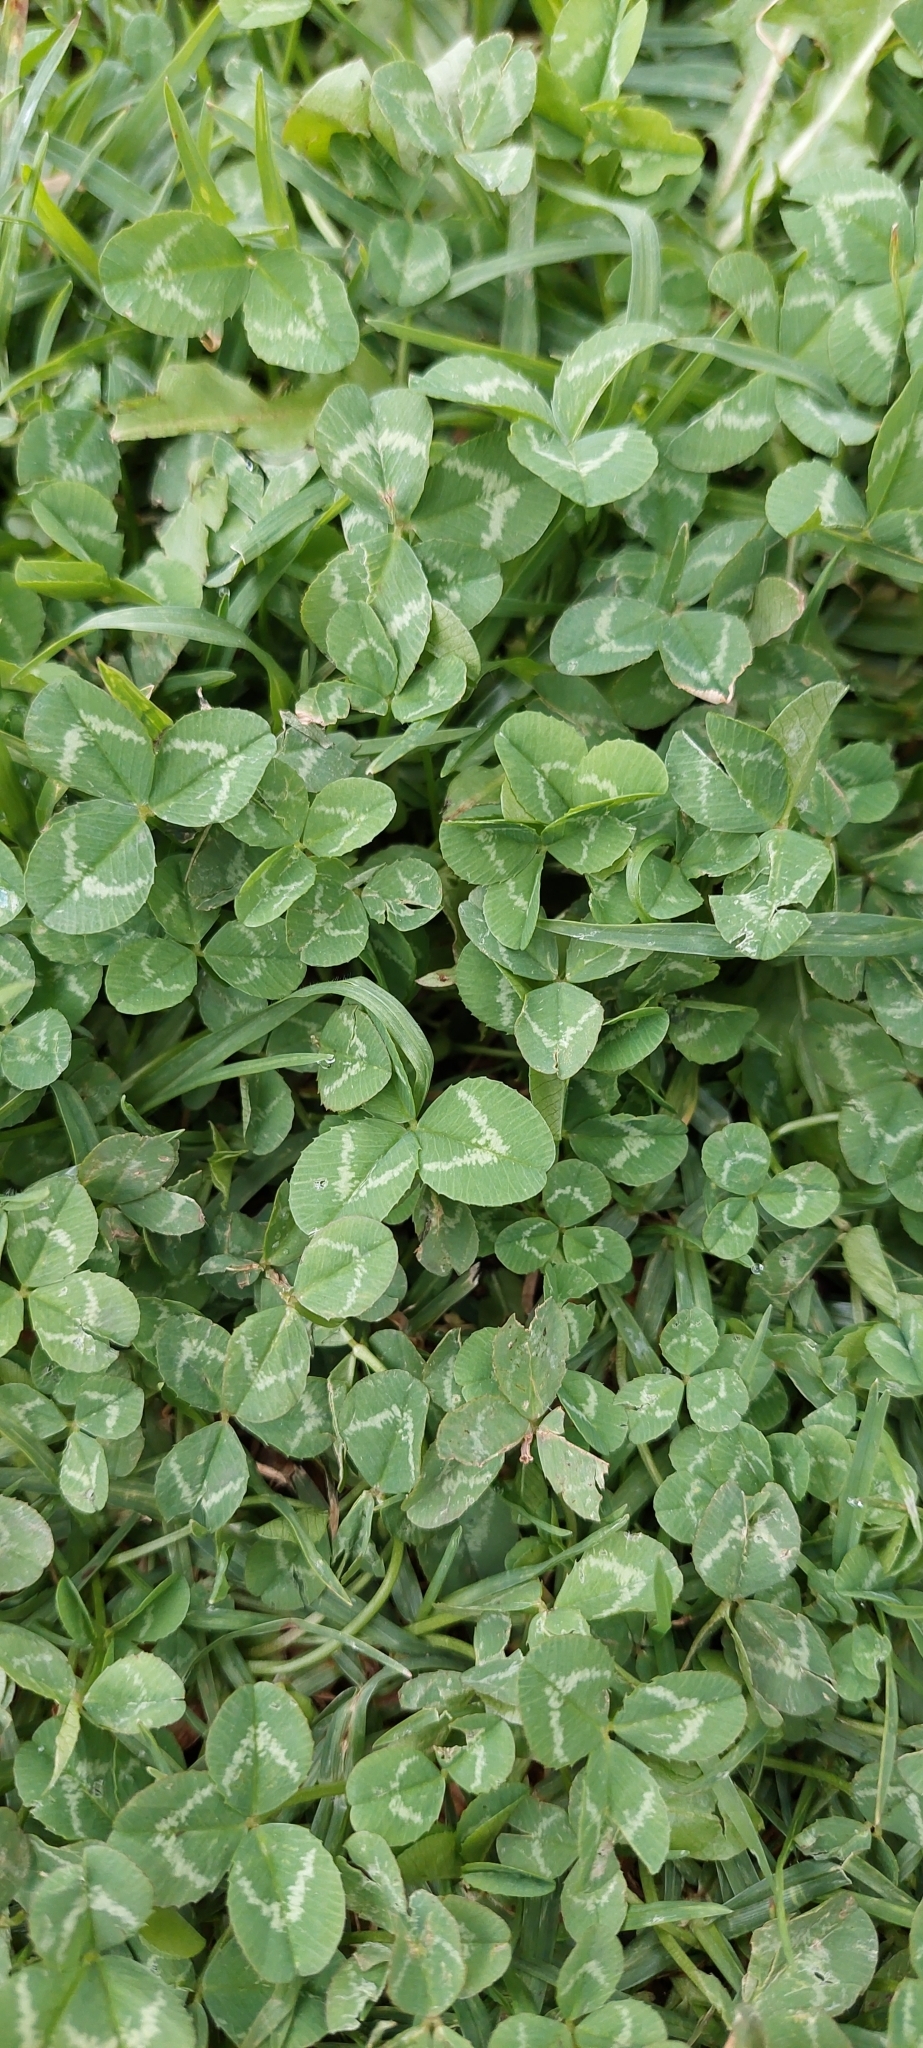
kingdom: Plantae
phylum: Tracheophyta
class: Magnoliopsida
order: Fabales
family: Fabaceae
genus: Trifolium
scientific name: Trifolium repens
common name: White clover
